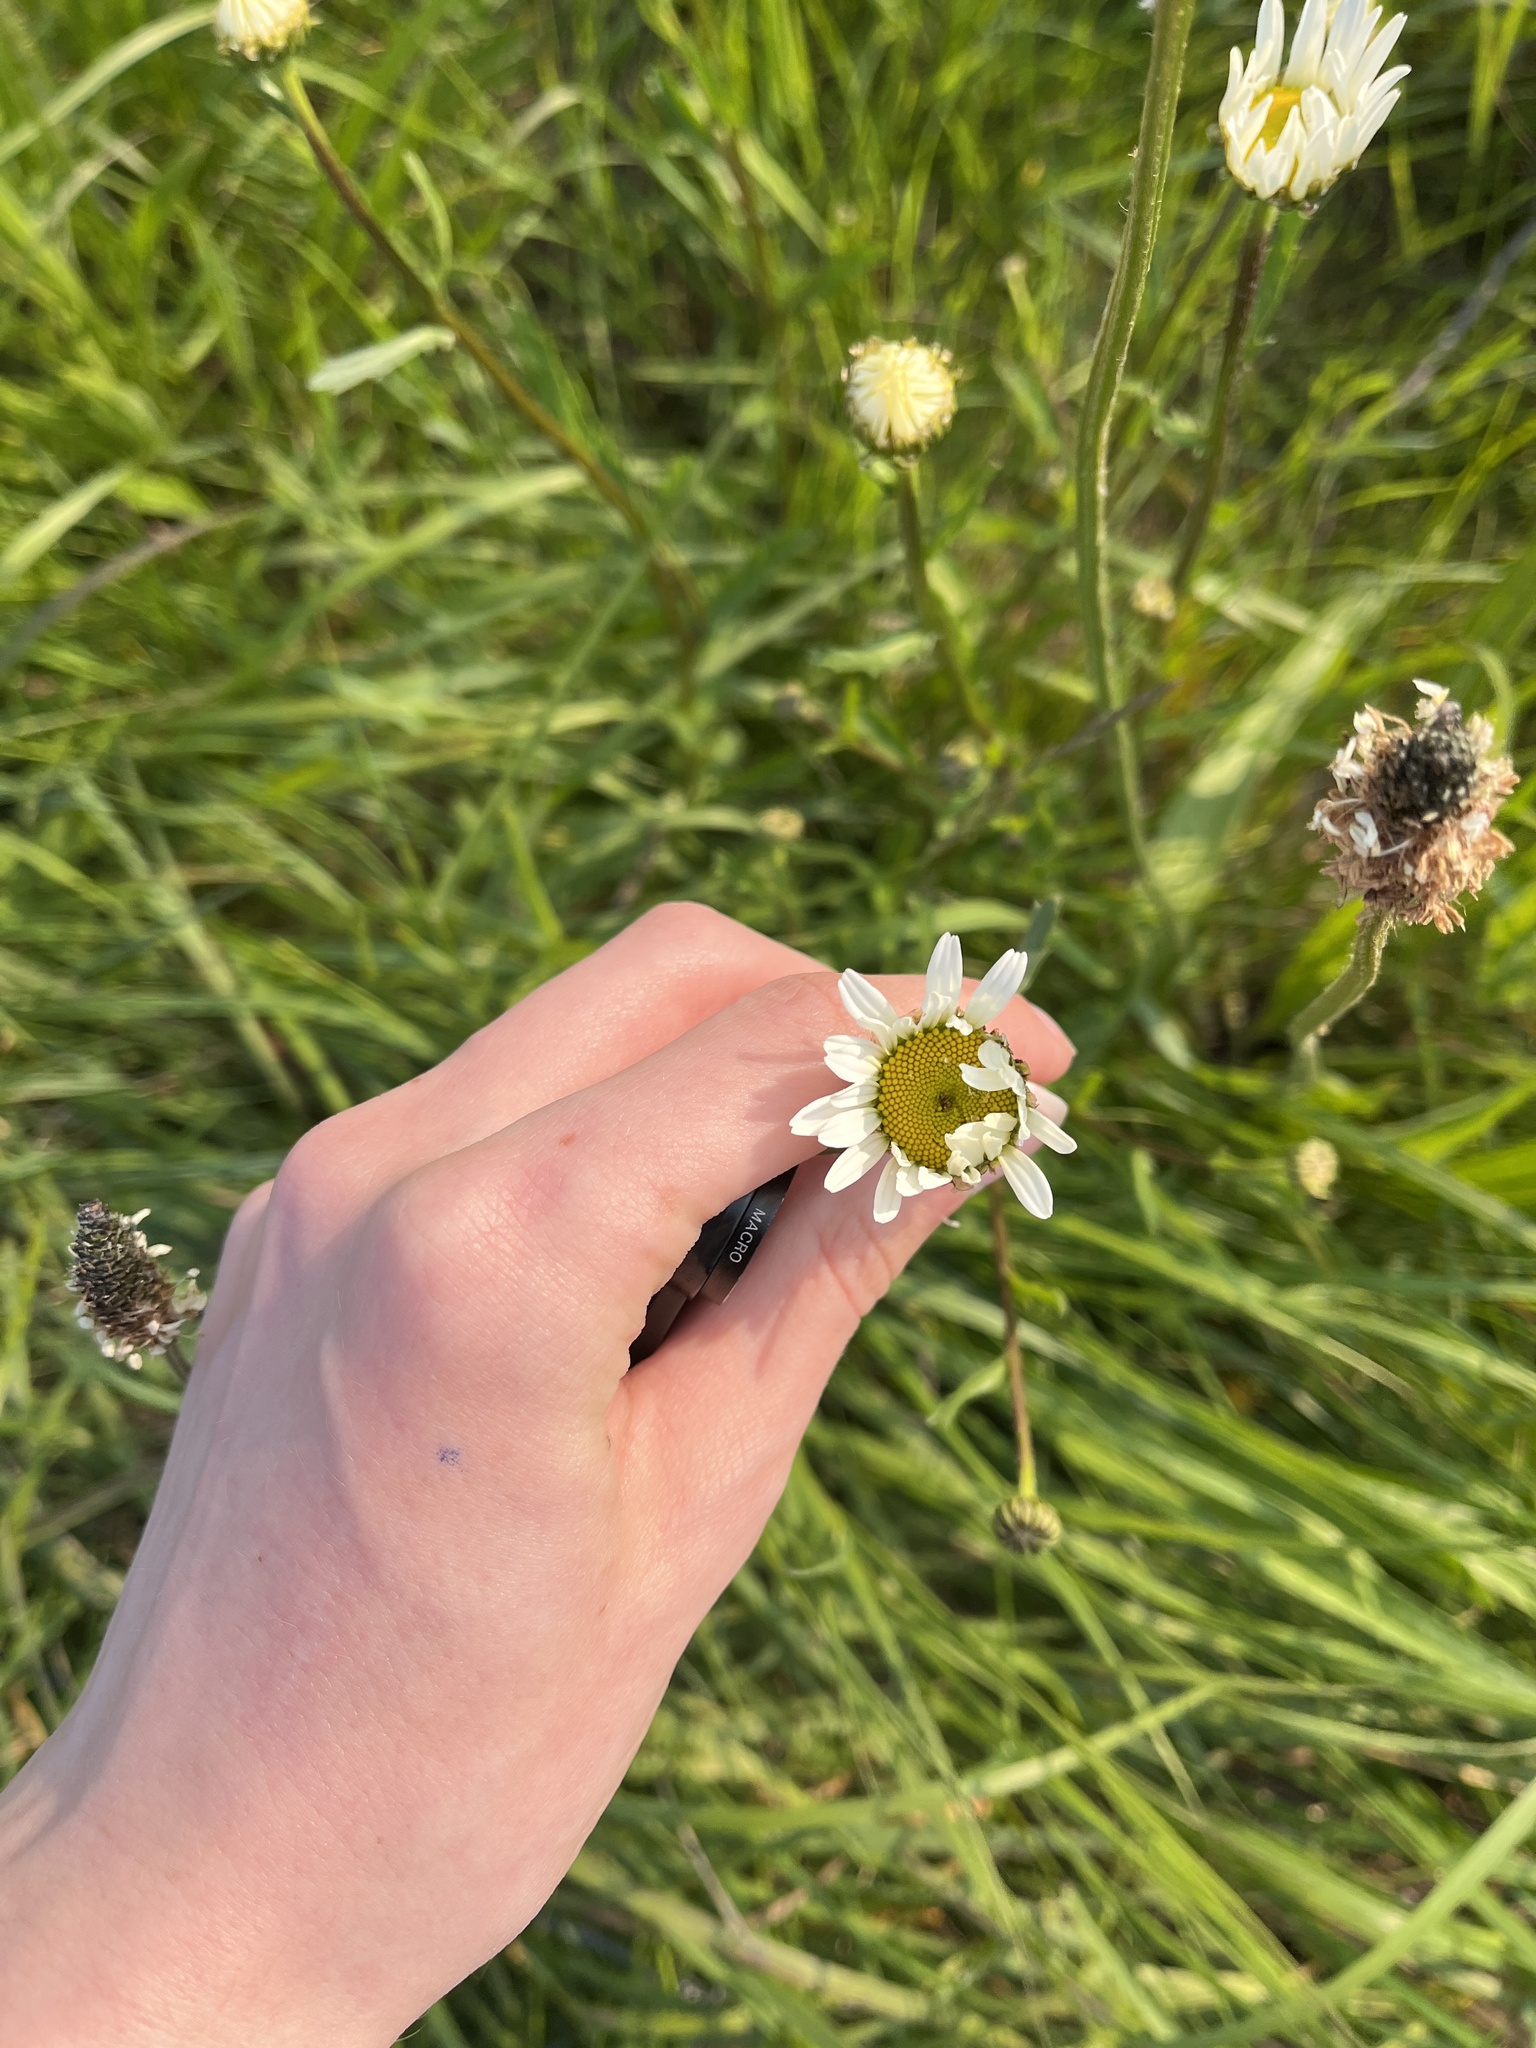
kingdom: Plantae
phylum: Tracheophyta
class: Magnoliopsida
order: Asterales
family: Asteraceae
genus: Leucanthemum
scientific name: Leucanthemum vulgare
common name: Oxeye daisy
